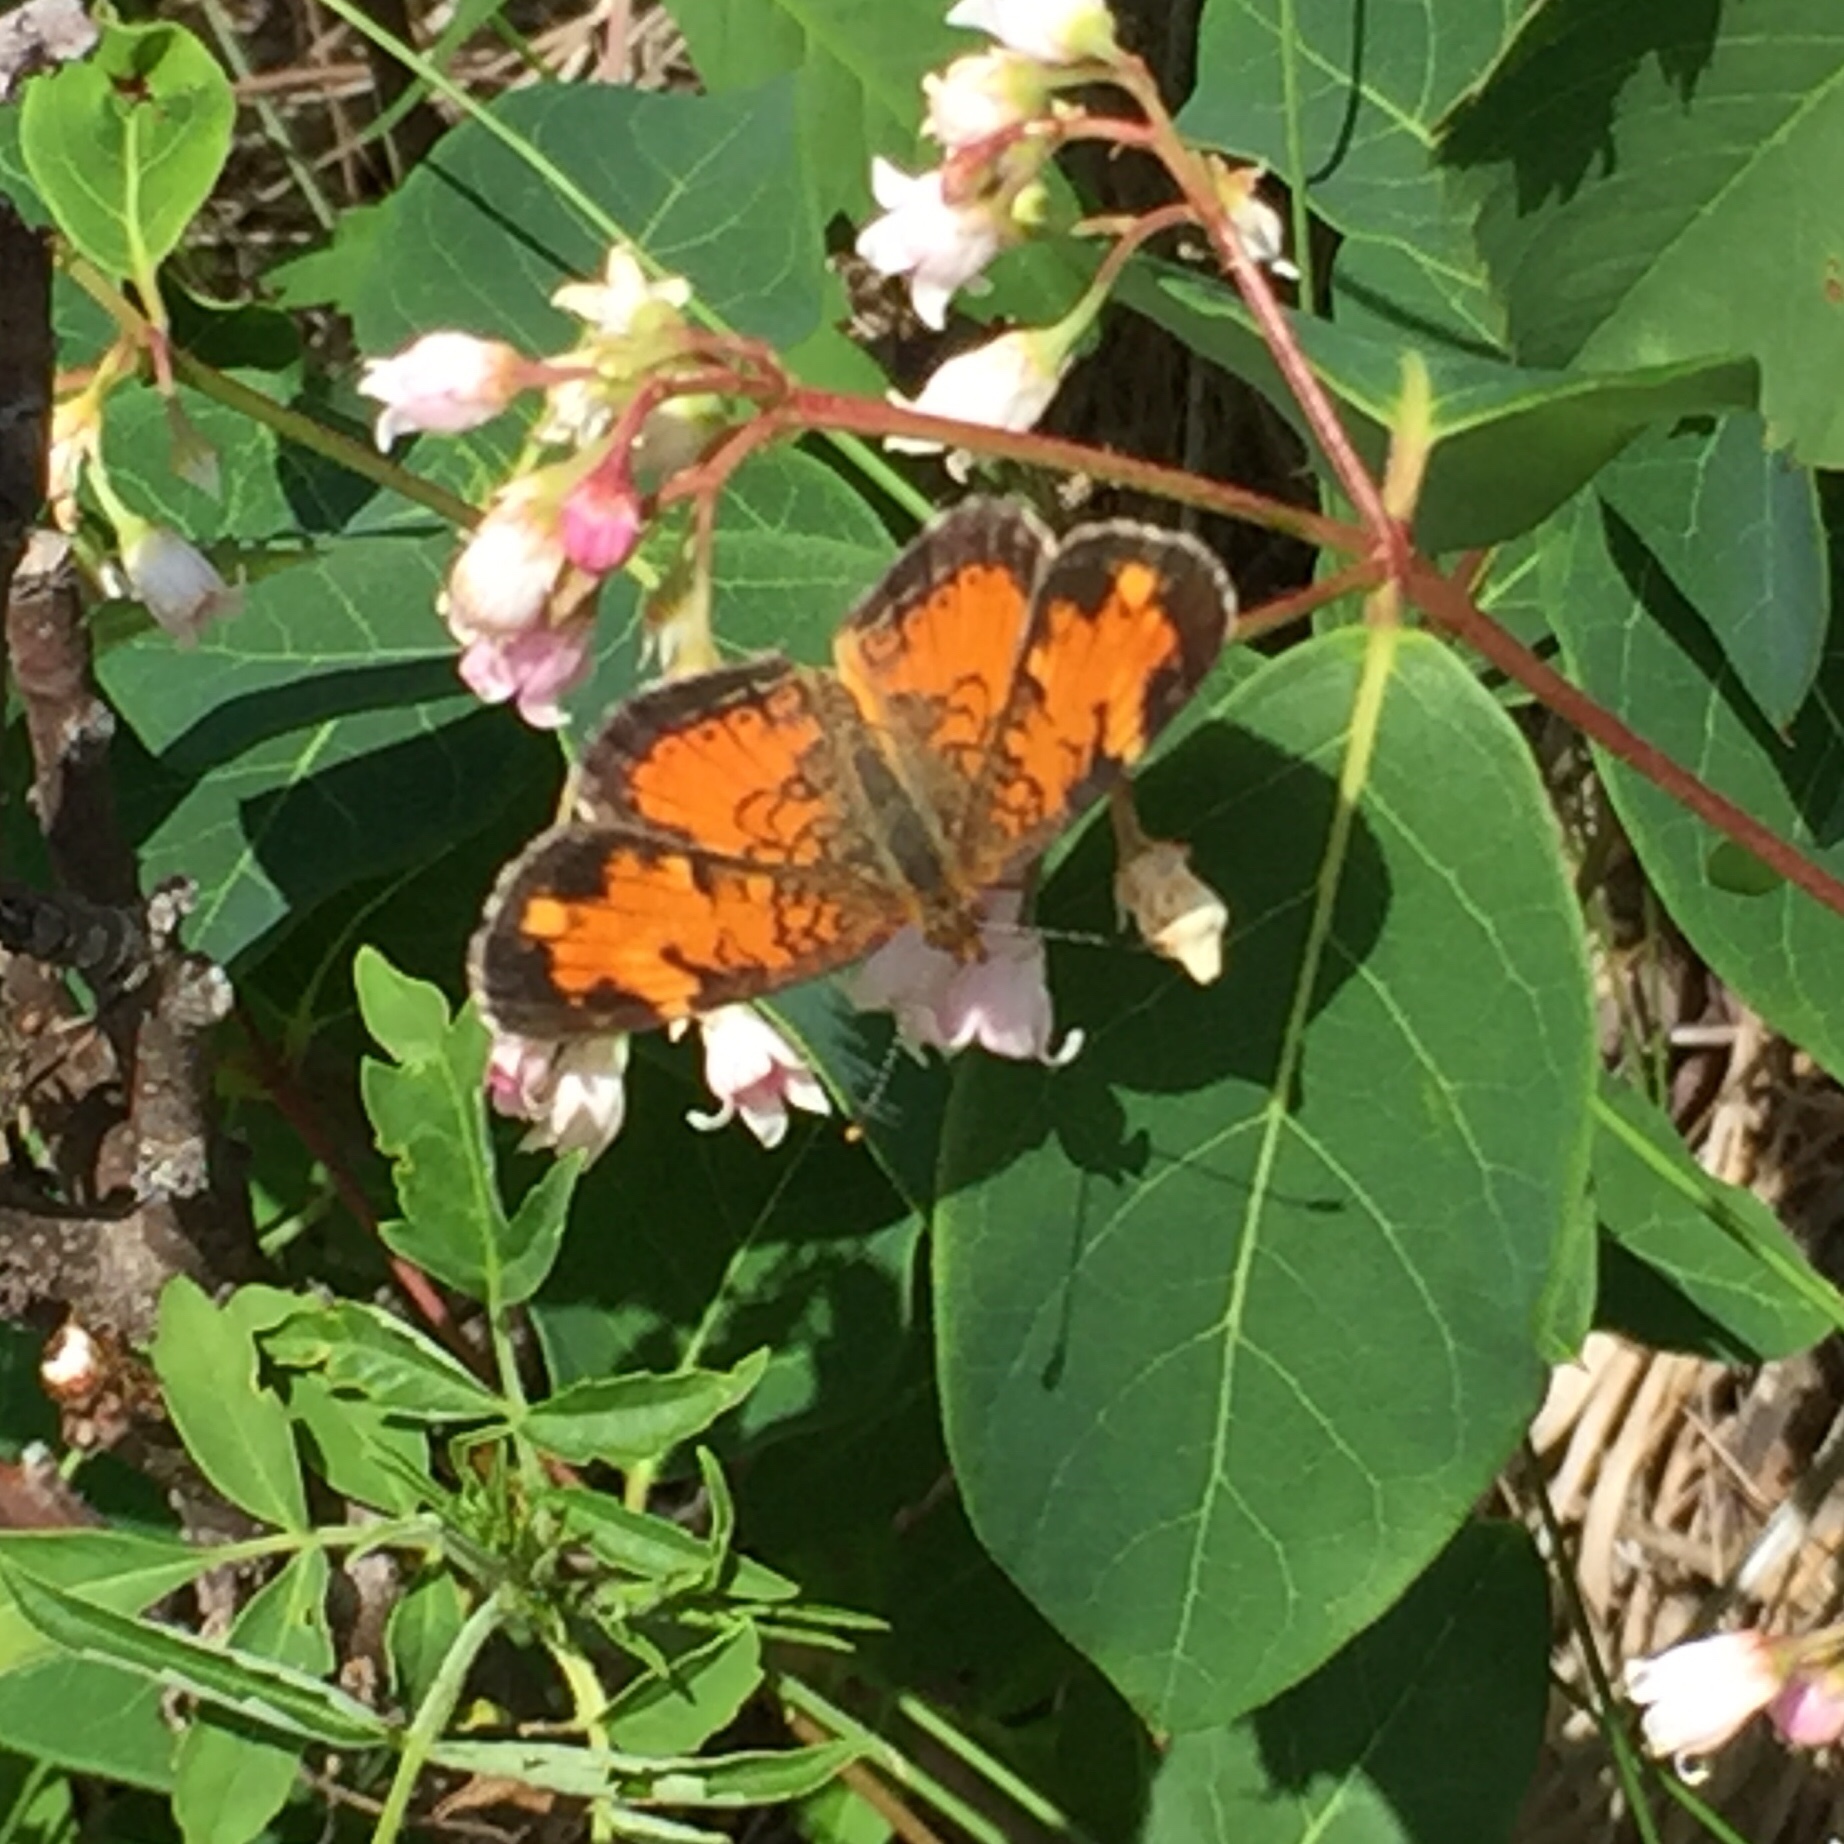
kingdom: Animalia
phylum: Arthropoda
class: Insecta
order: Lepidoptera
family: Nymphalidae
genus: Phyciodes
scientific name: Phyciodes tharos
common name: Pearl crescent
